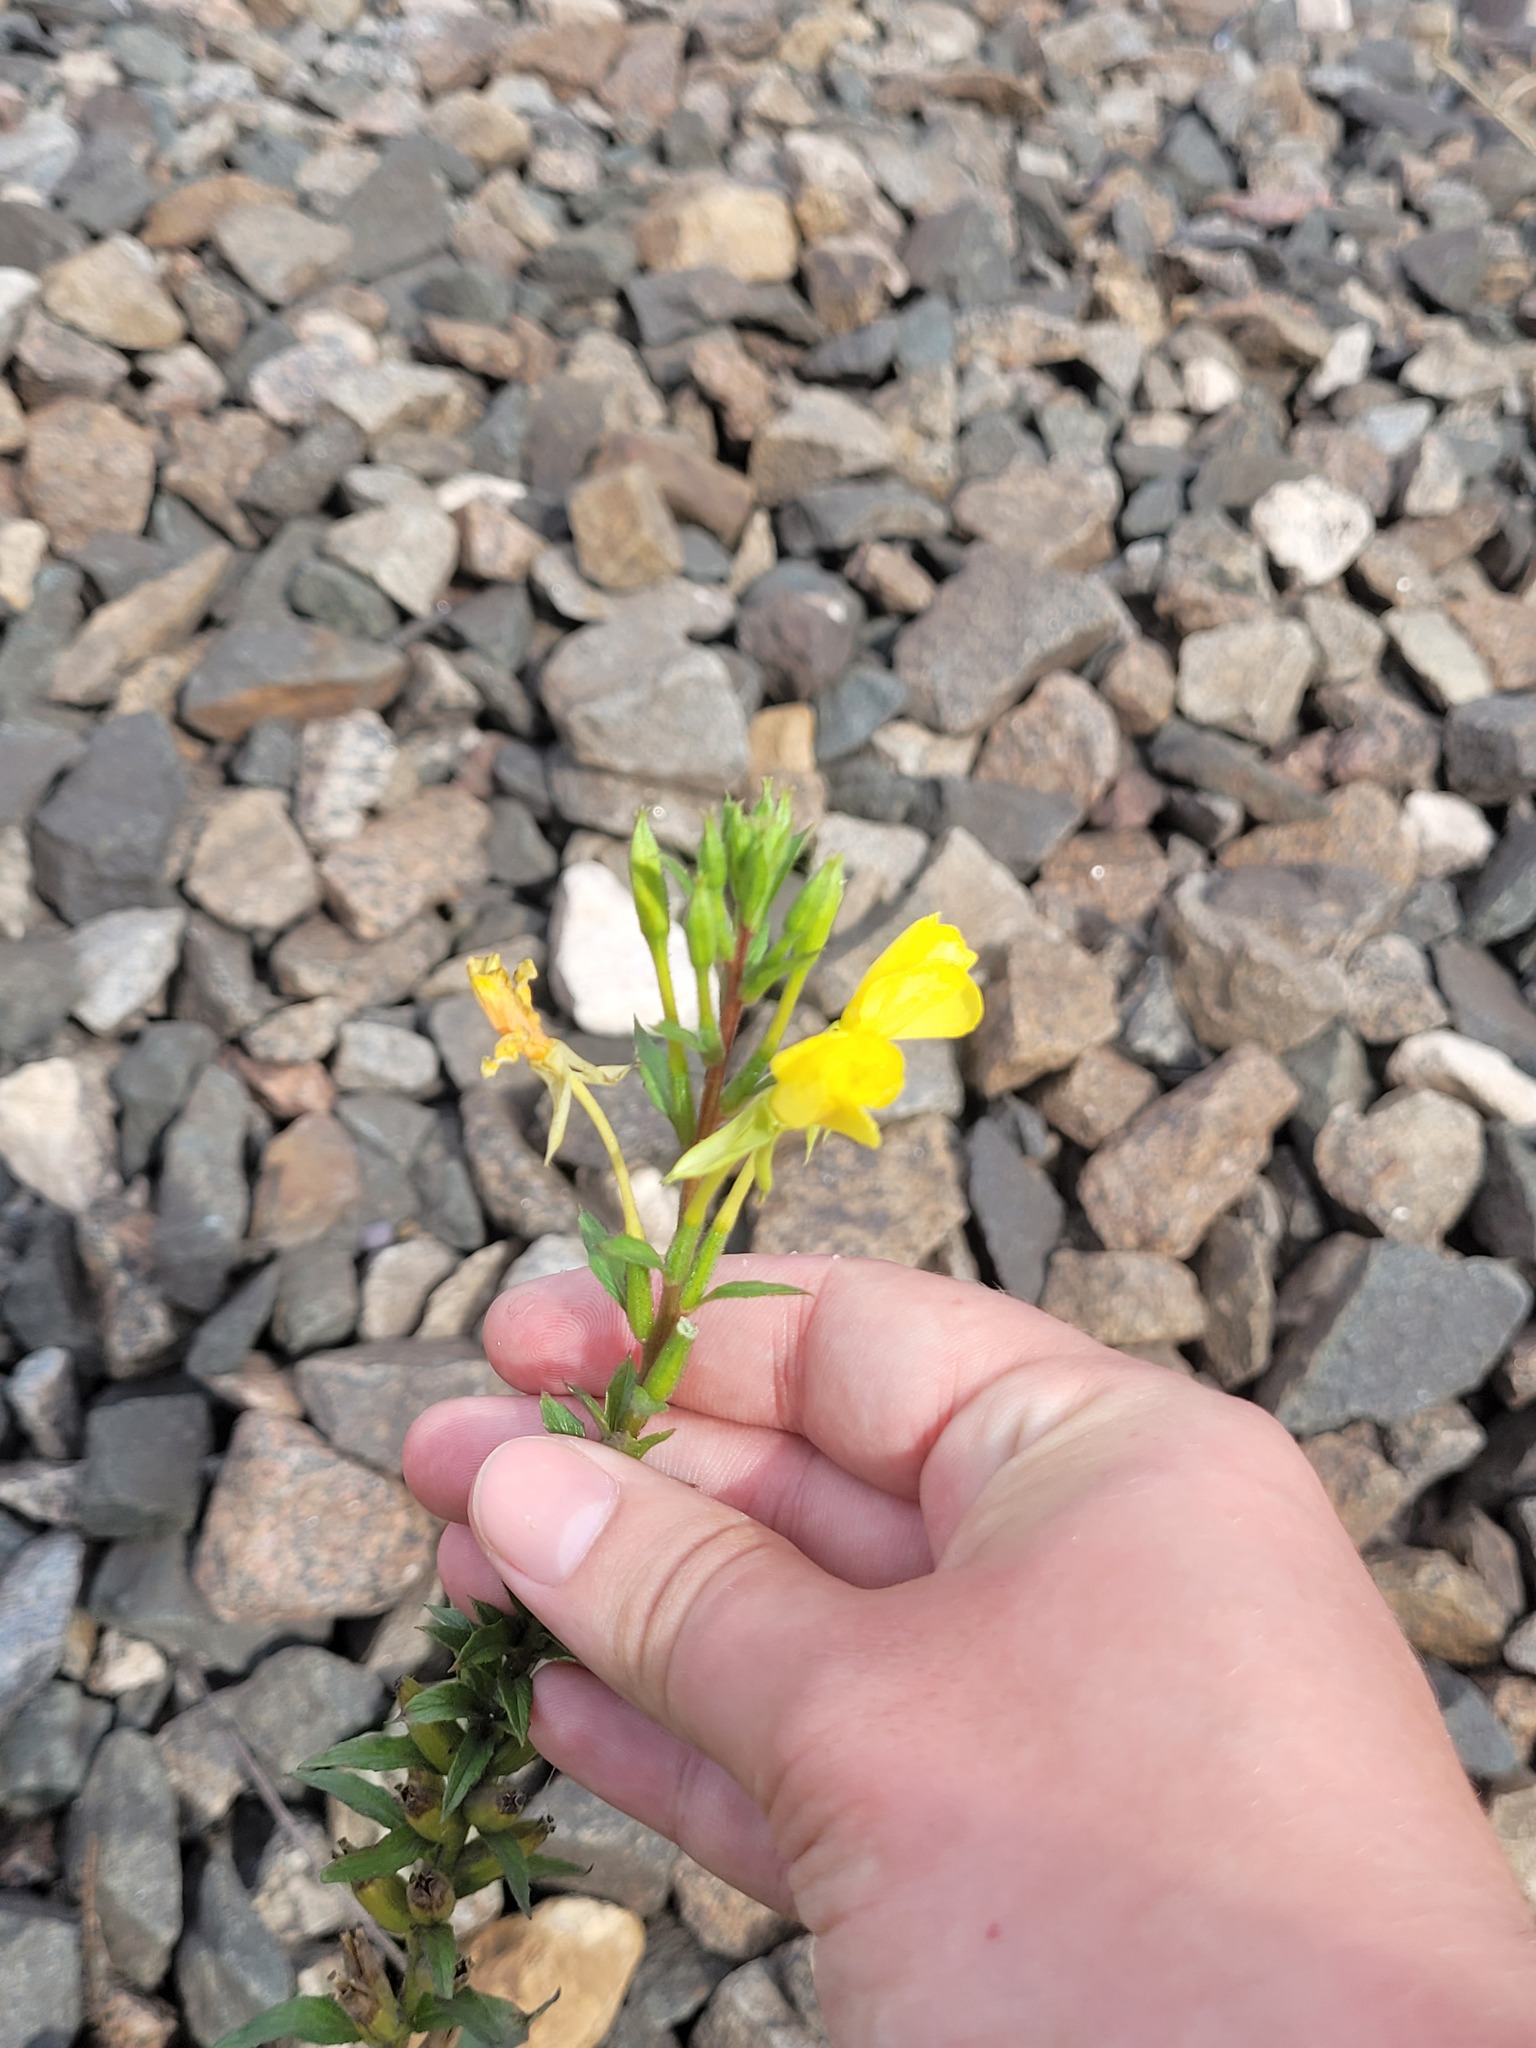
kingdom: Plantae
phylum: Tracheophyta
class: Magnoliopsida
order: Myrtales
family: Onagraceae
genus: Oenothera
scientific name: Oenothera rubricaulis
